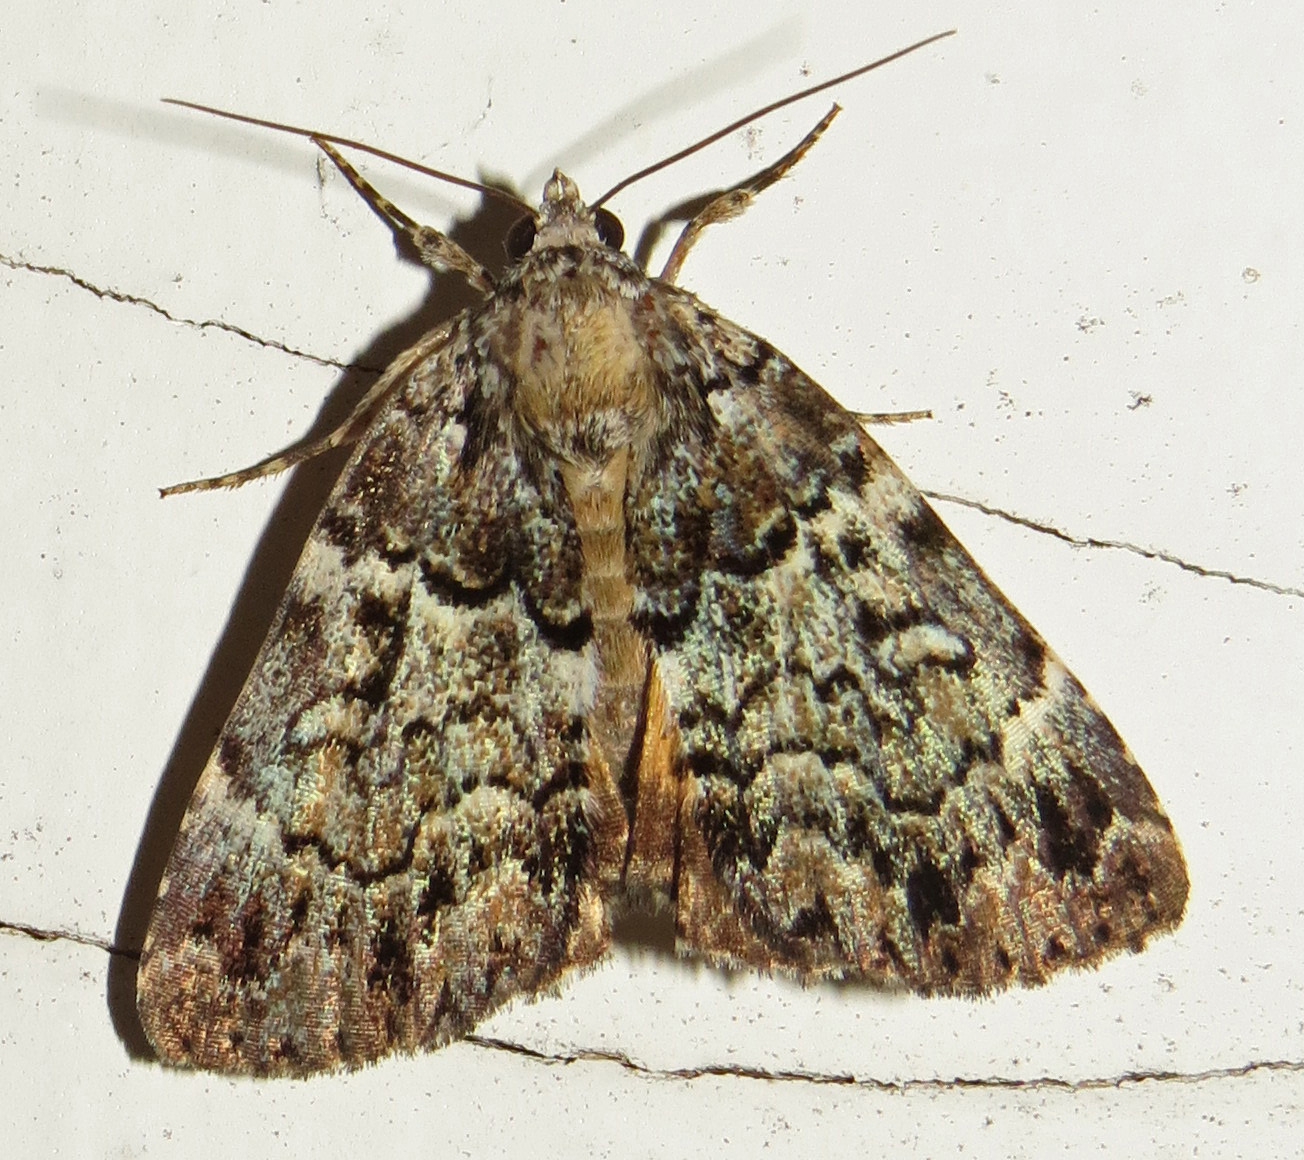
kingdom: Animalia
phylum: Arthropoda
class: Insecta
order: Lepidoptera
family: Erebidae
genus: Allotria
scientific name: Allotria elonympha
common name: False underwing
